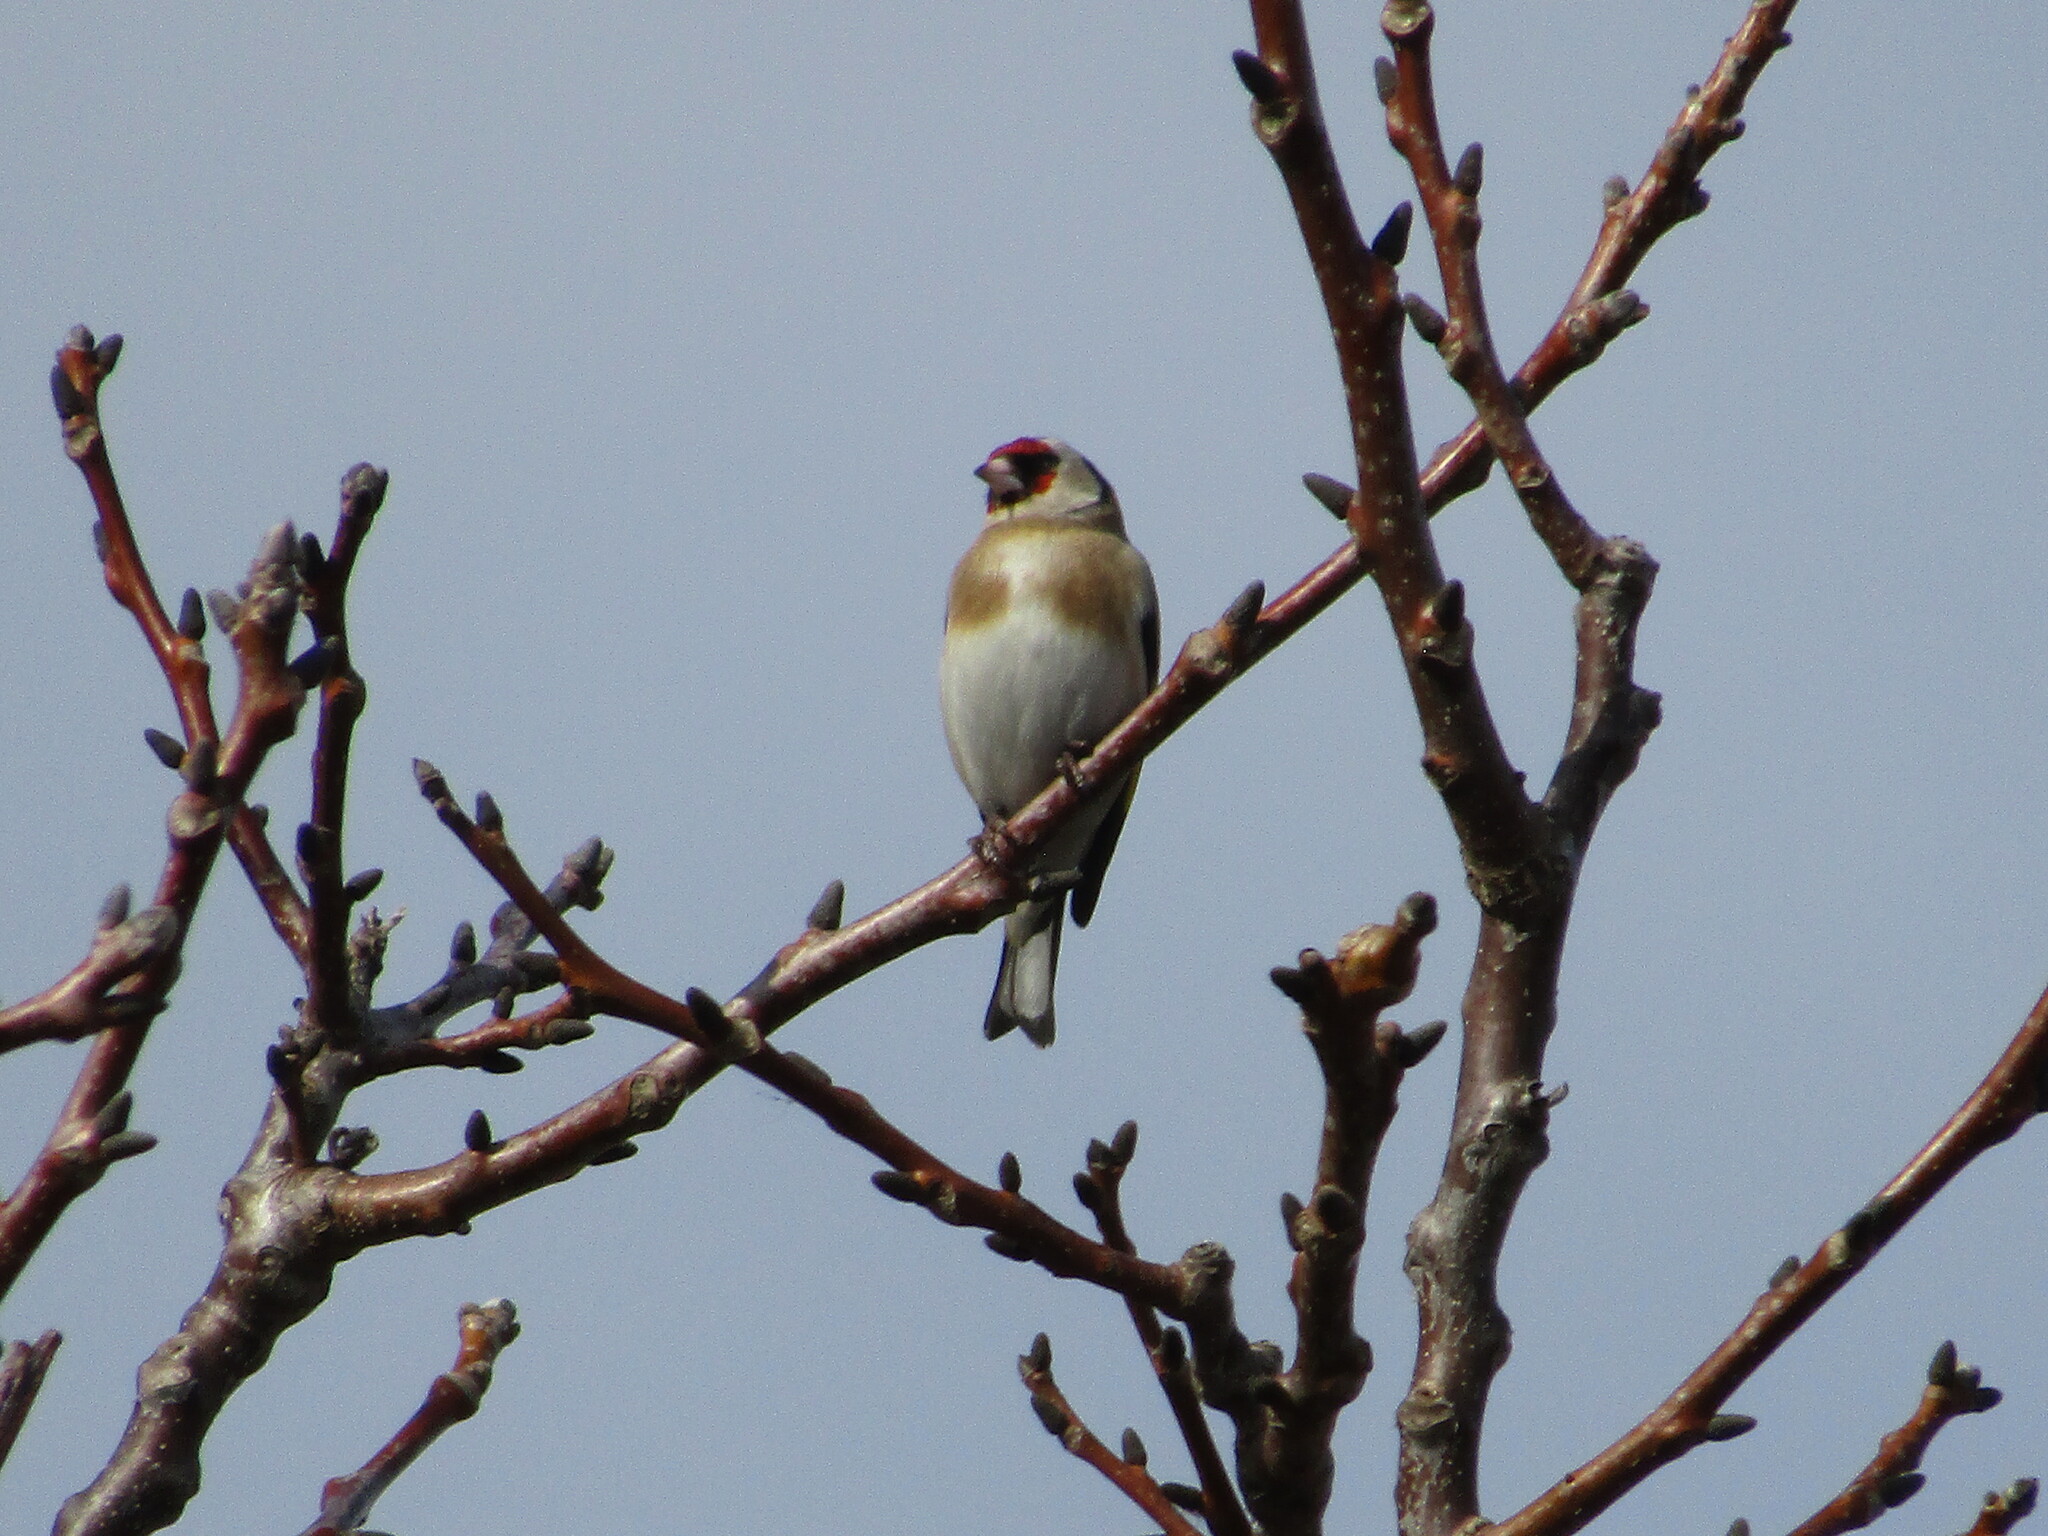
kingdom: Animalia
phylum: Chordata
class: Aves
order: Passeriformes
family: Fringillidae
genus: Carduelis
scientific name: Carduelis carduelis
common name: European goldfinch
